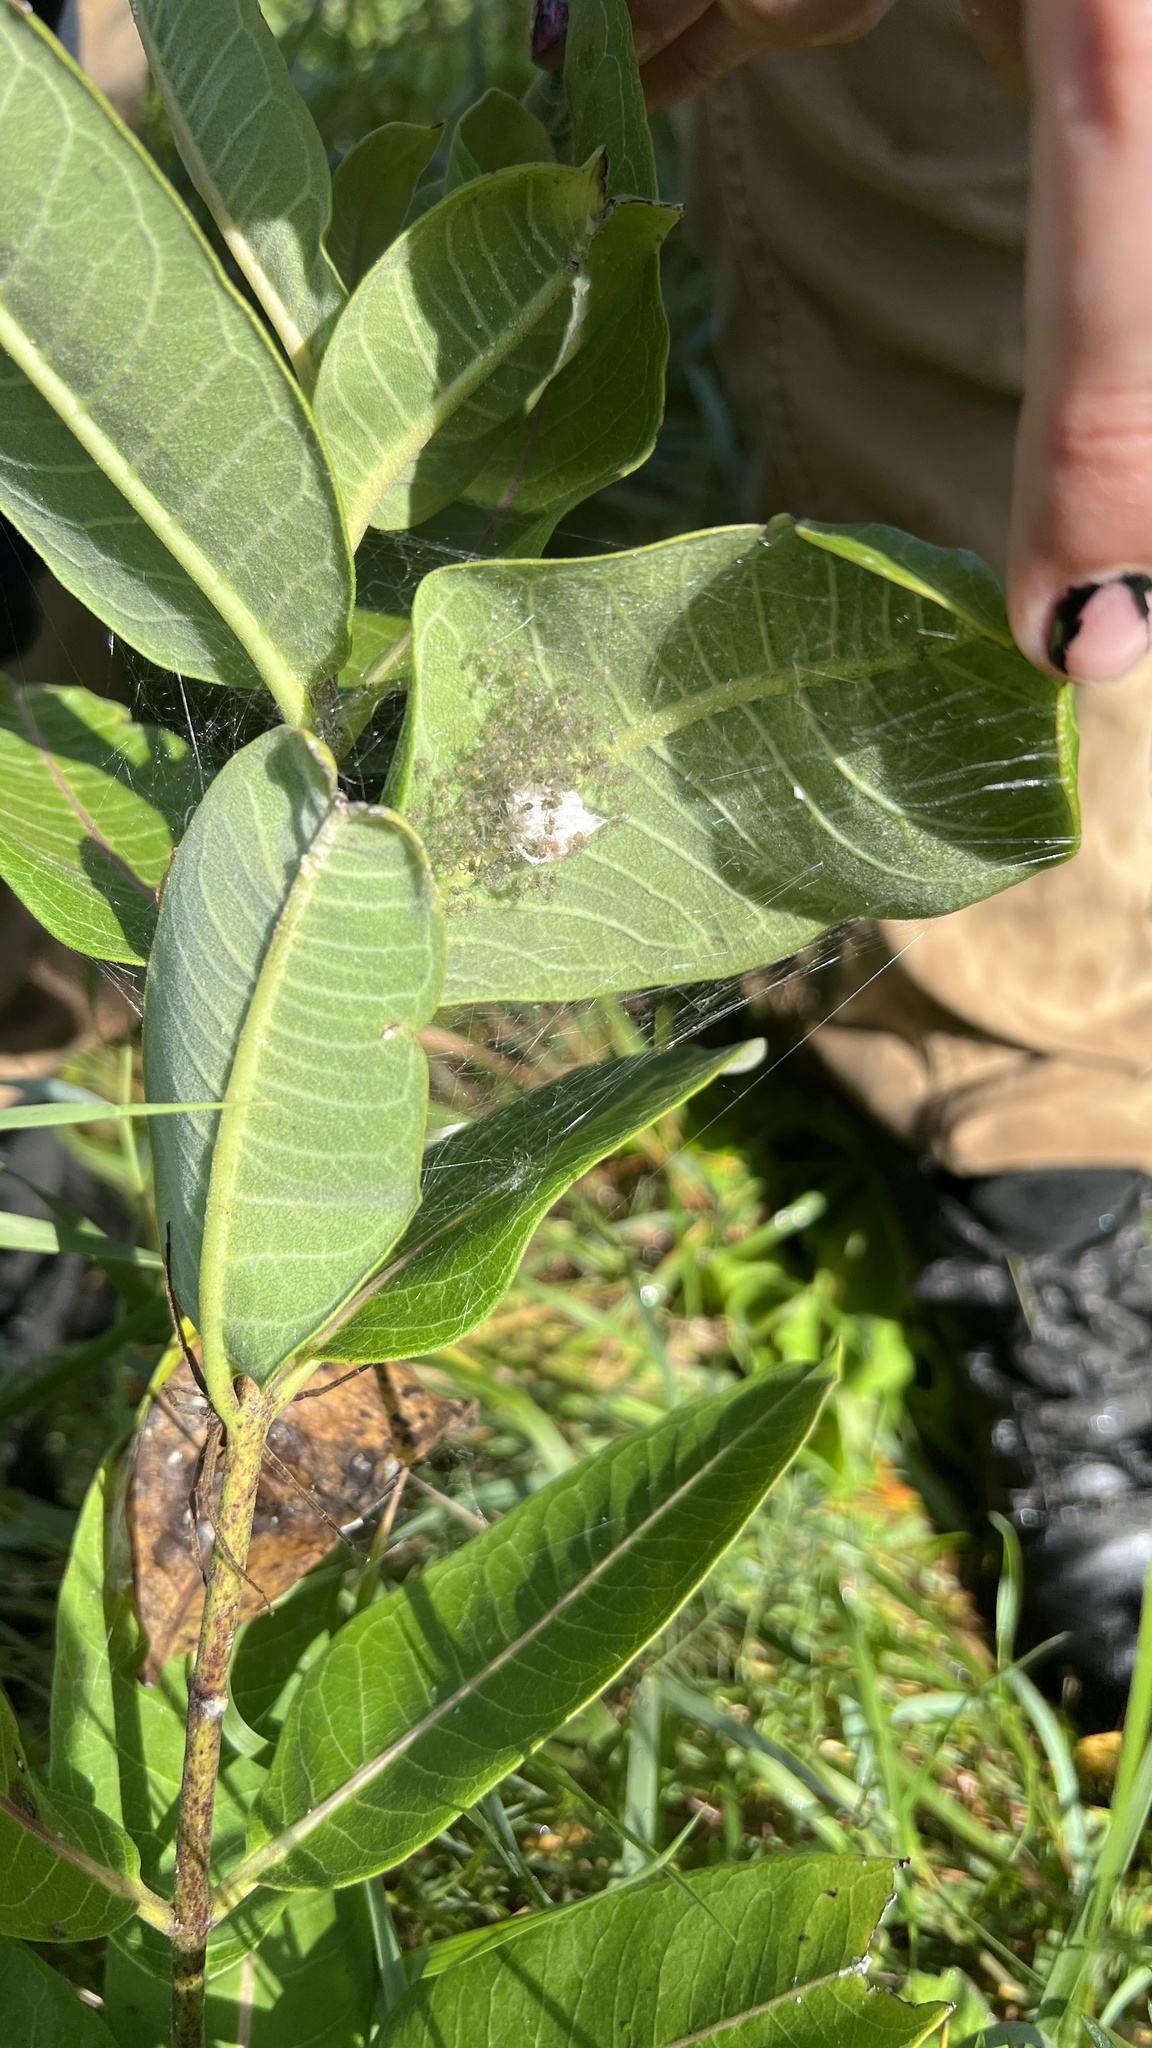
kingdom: Animalia
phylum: Arthropoda
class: Arachnida
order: Araneae
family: Pisauridae
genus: Pisaurina
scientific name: Pisaurina mira
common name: American nursery web spider
